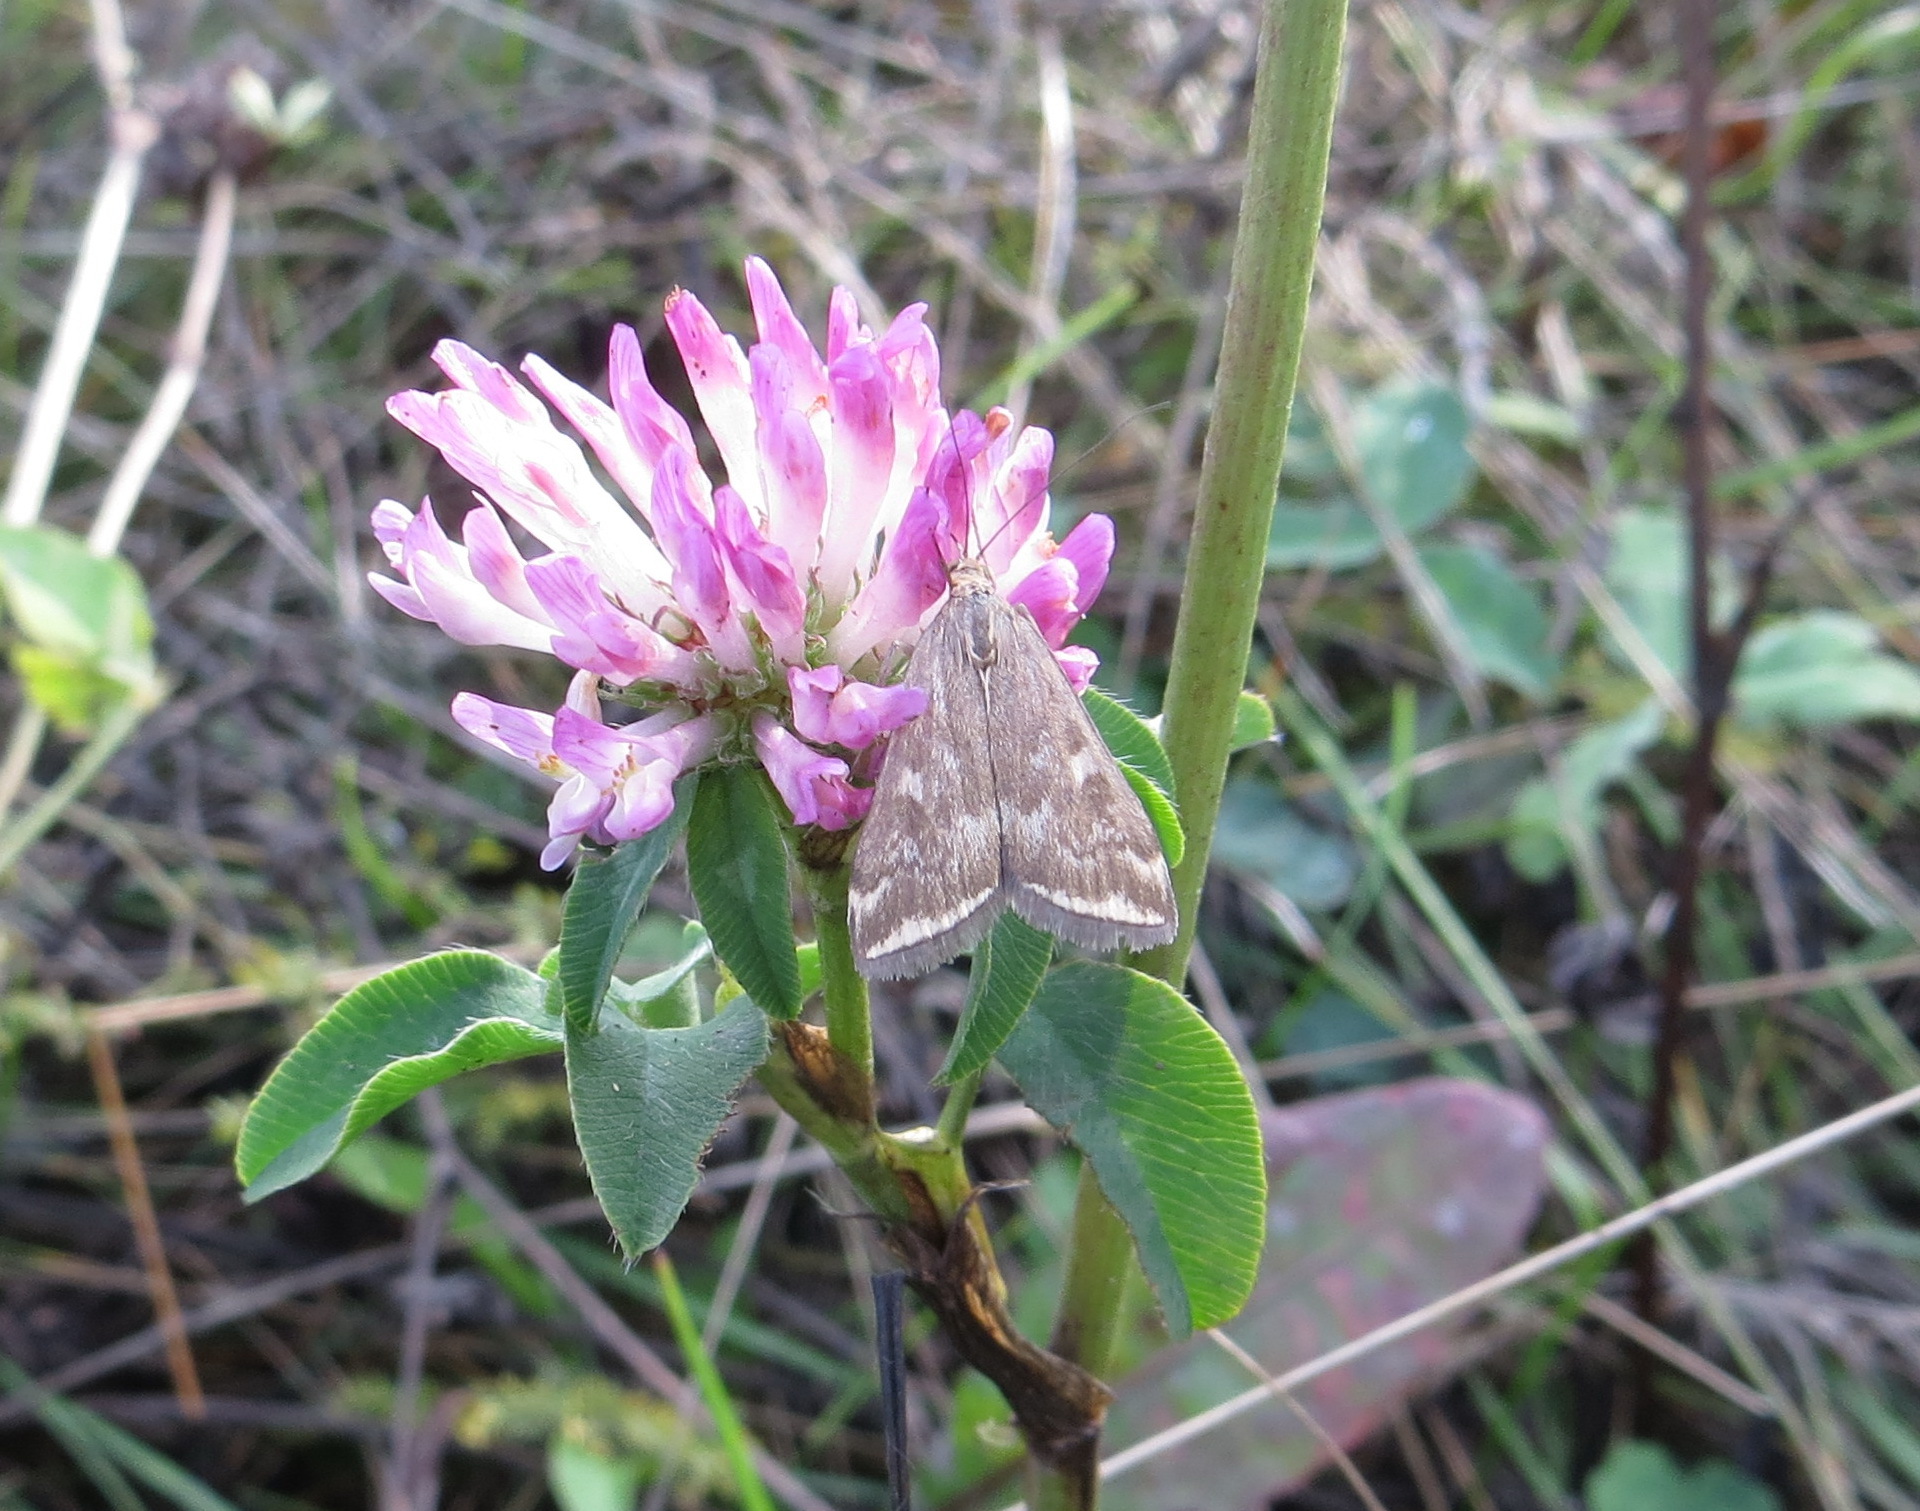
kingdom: Animalia
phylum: Arthropoda
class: Insecta
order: Lepidoptera
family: Crambidae
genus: Loxostege
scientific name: Loxostege sticticalis
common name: Crambid moth
